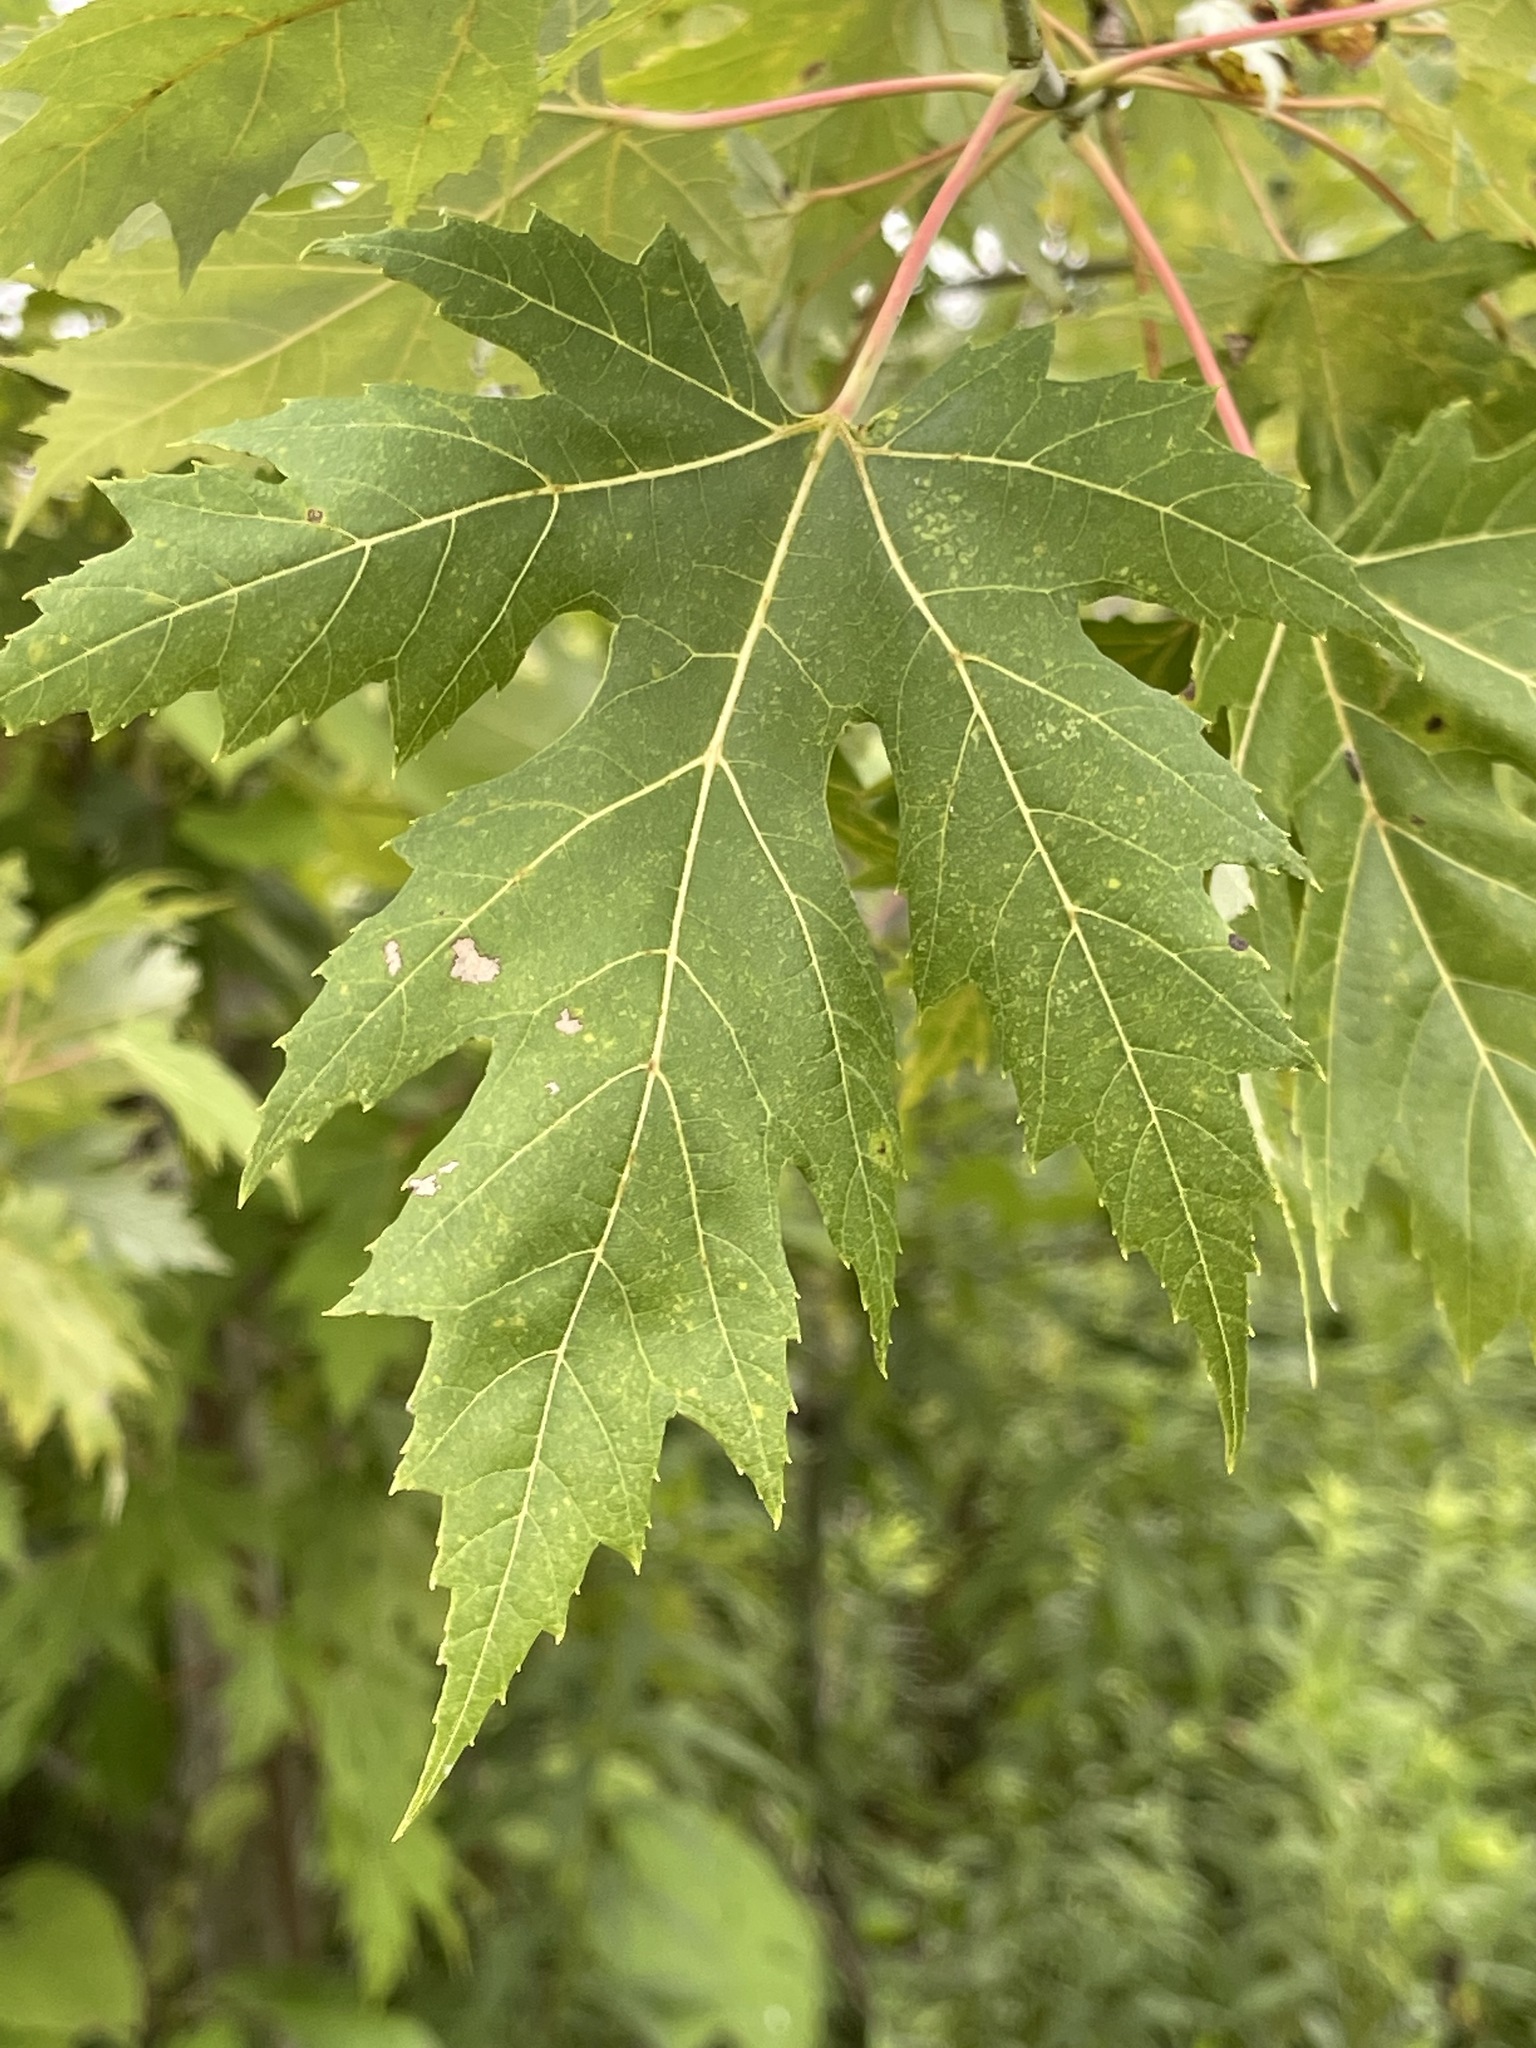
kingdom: Plantae
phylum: Tracheophyta
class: Magnoliopsida
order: Sapindales
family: Sapindaceae
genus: Acer
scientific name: Acer saccharinum
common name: Silver maple
